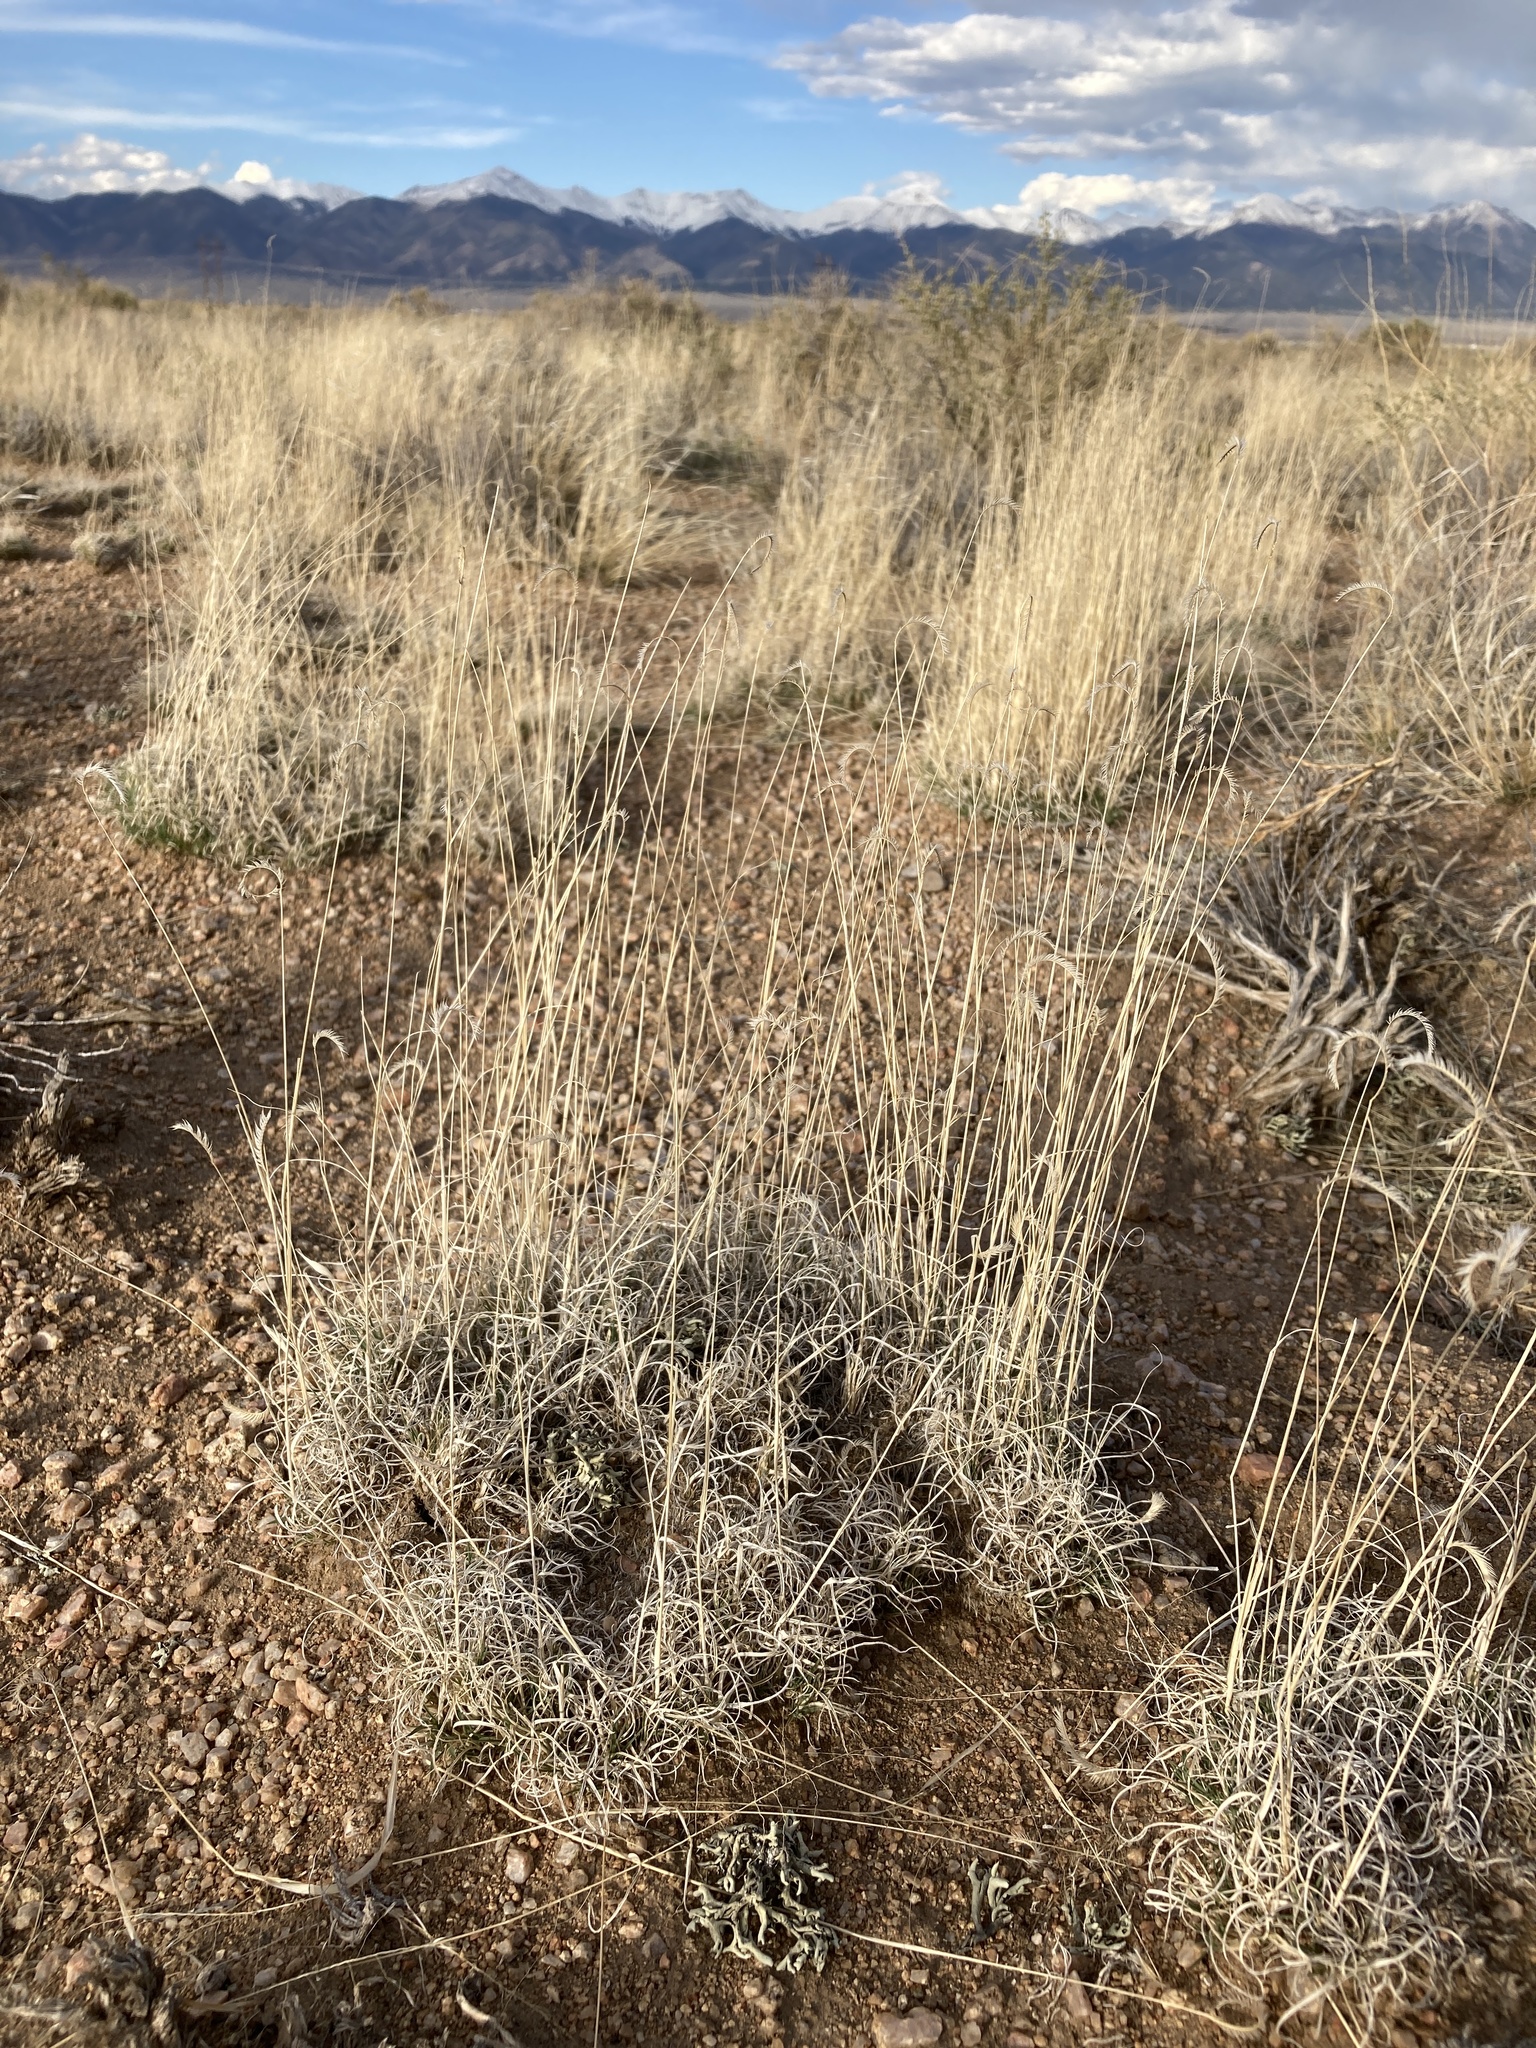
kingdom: Plantae
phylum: Tracheophyta
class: Liliopsida
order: Poales
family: Poaceae
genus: Bouteloua
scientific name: Bouteloua gracilis
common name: Blue grama
